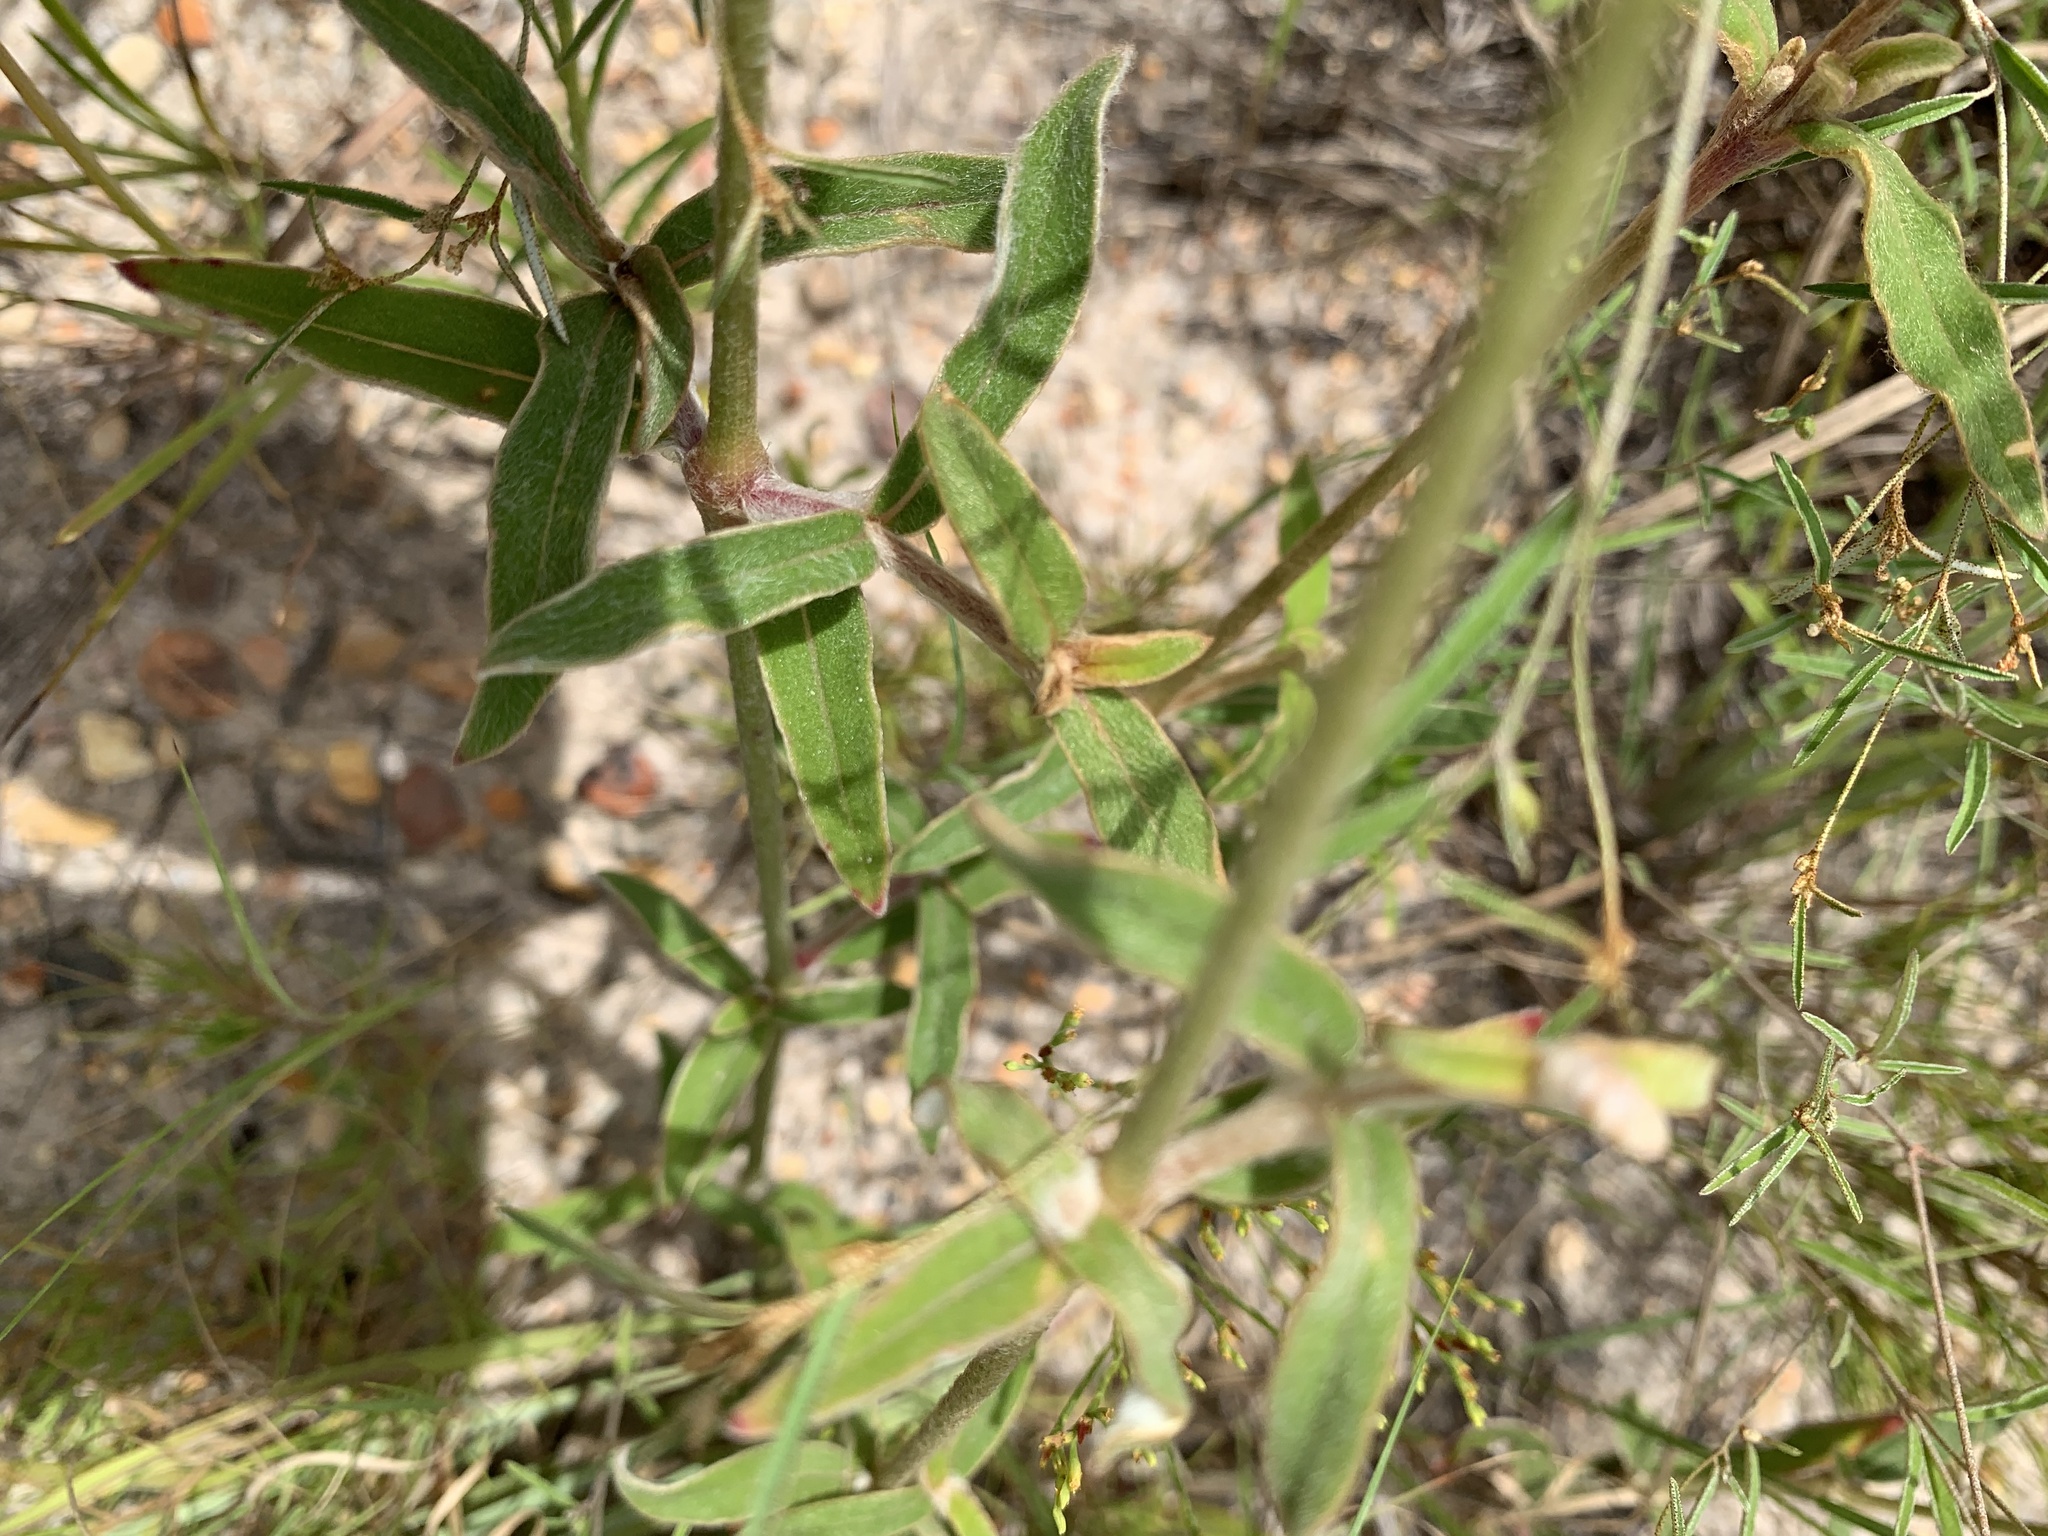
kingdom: Plantae
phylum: Tracheophyta
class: Magnoliopsida
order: Caryophyllales
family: Amaranthaceae
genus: Froelichia
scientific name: Froelichia floridana
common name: Florida snake-cotton
